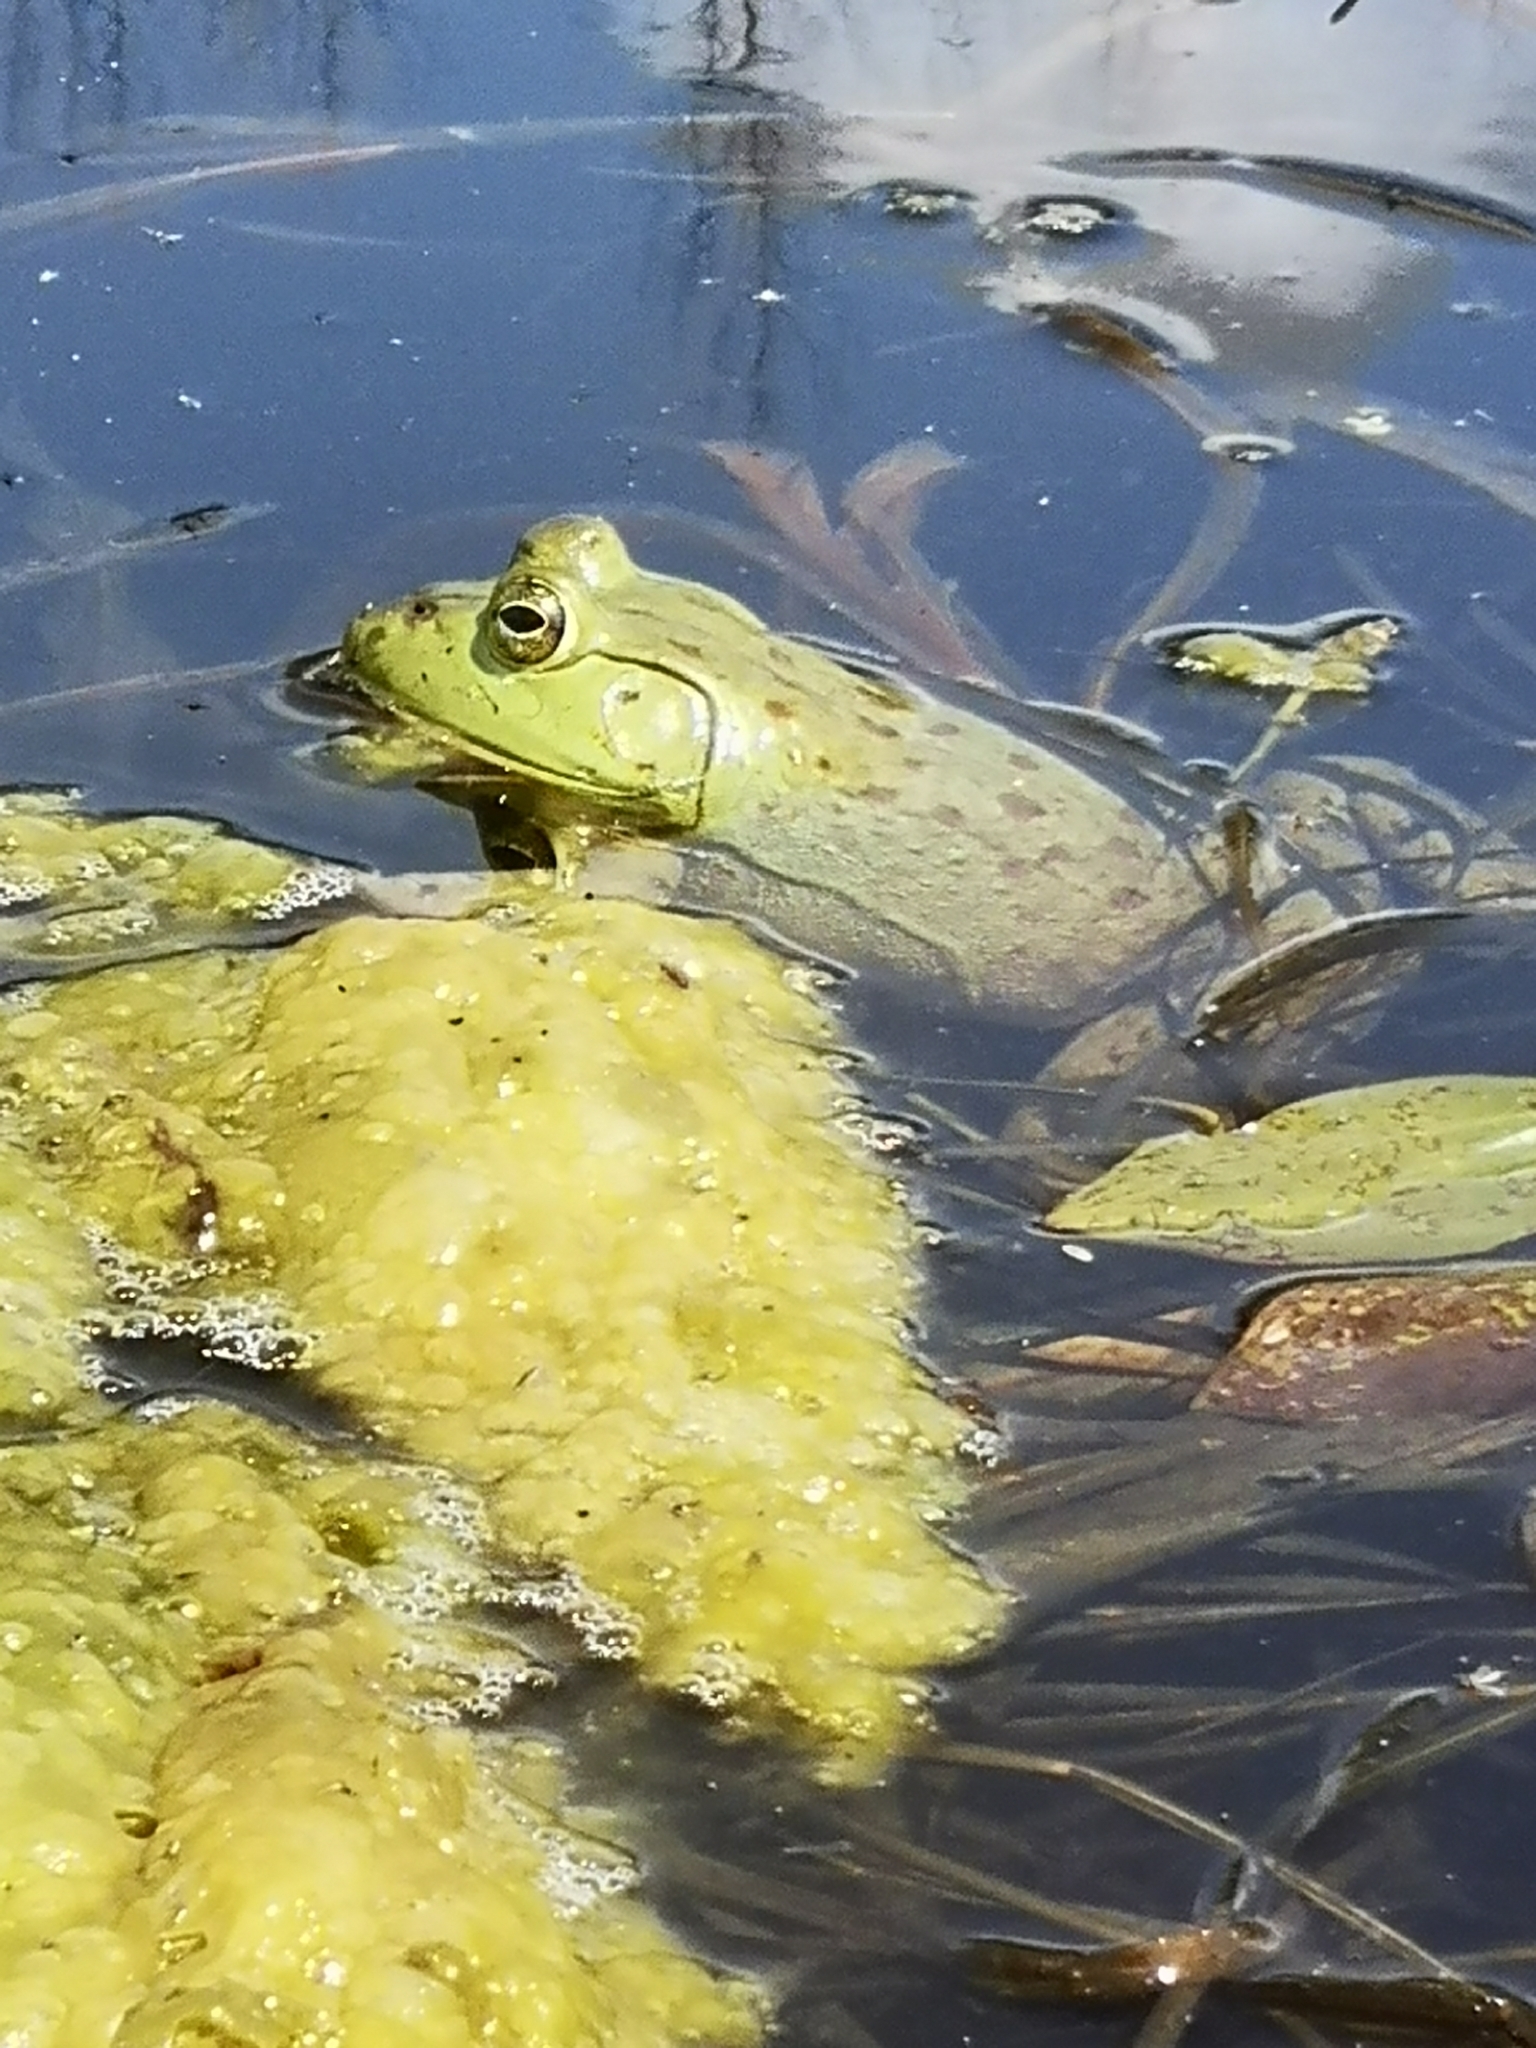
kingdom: Animalia
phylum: Chordata
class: Amphibia
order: Anura
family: Ranidae
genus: Lithobates
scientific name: Lithobates catesbeianus
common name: American bullfrog
